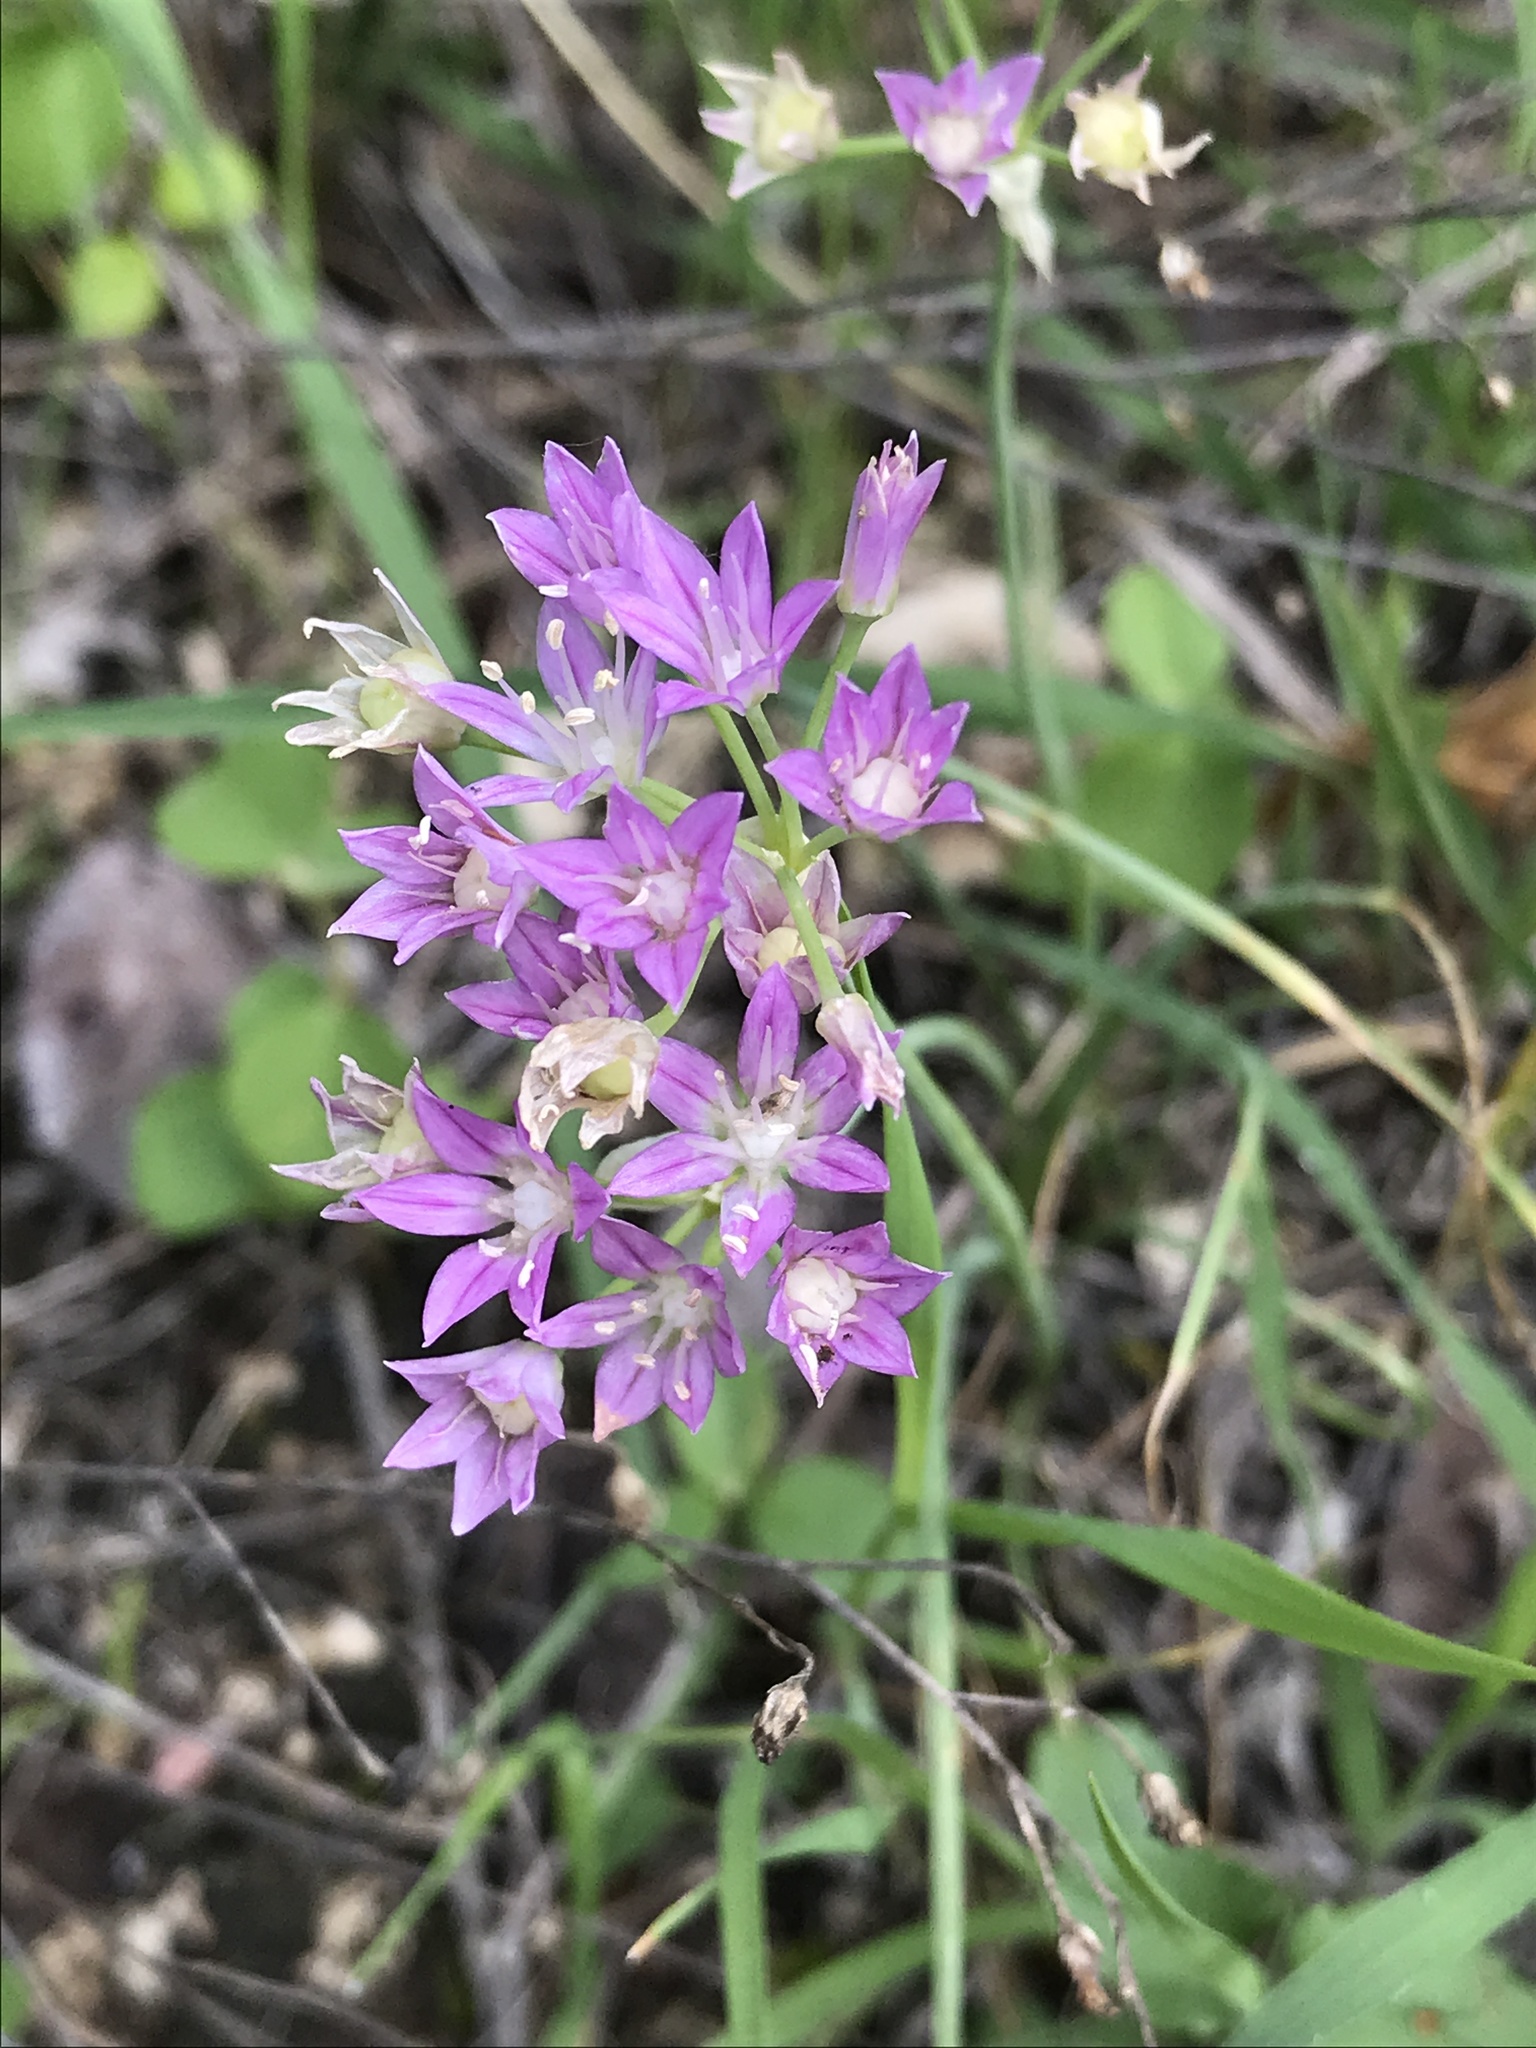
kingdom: Plantae
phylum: Tracheophyta
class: Liliopsida
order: Asparagales
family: Amaryllidaceae
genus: Allium
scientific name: Allium drummondii
